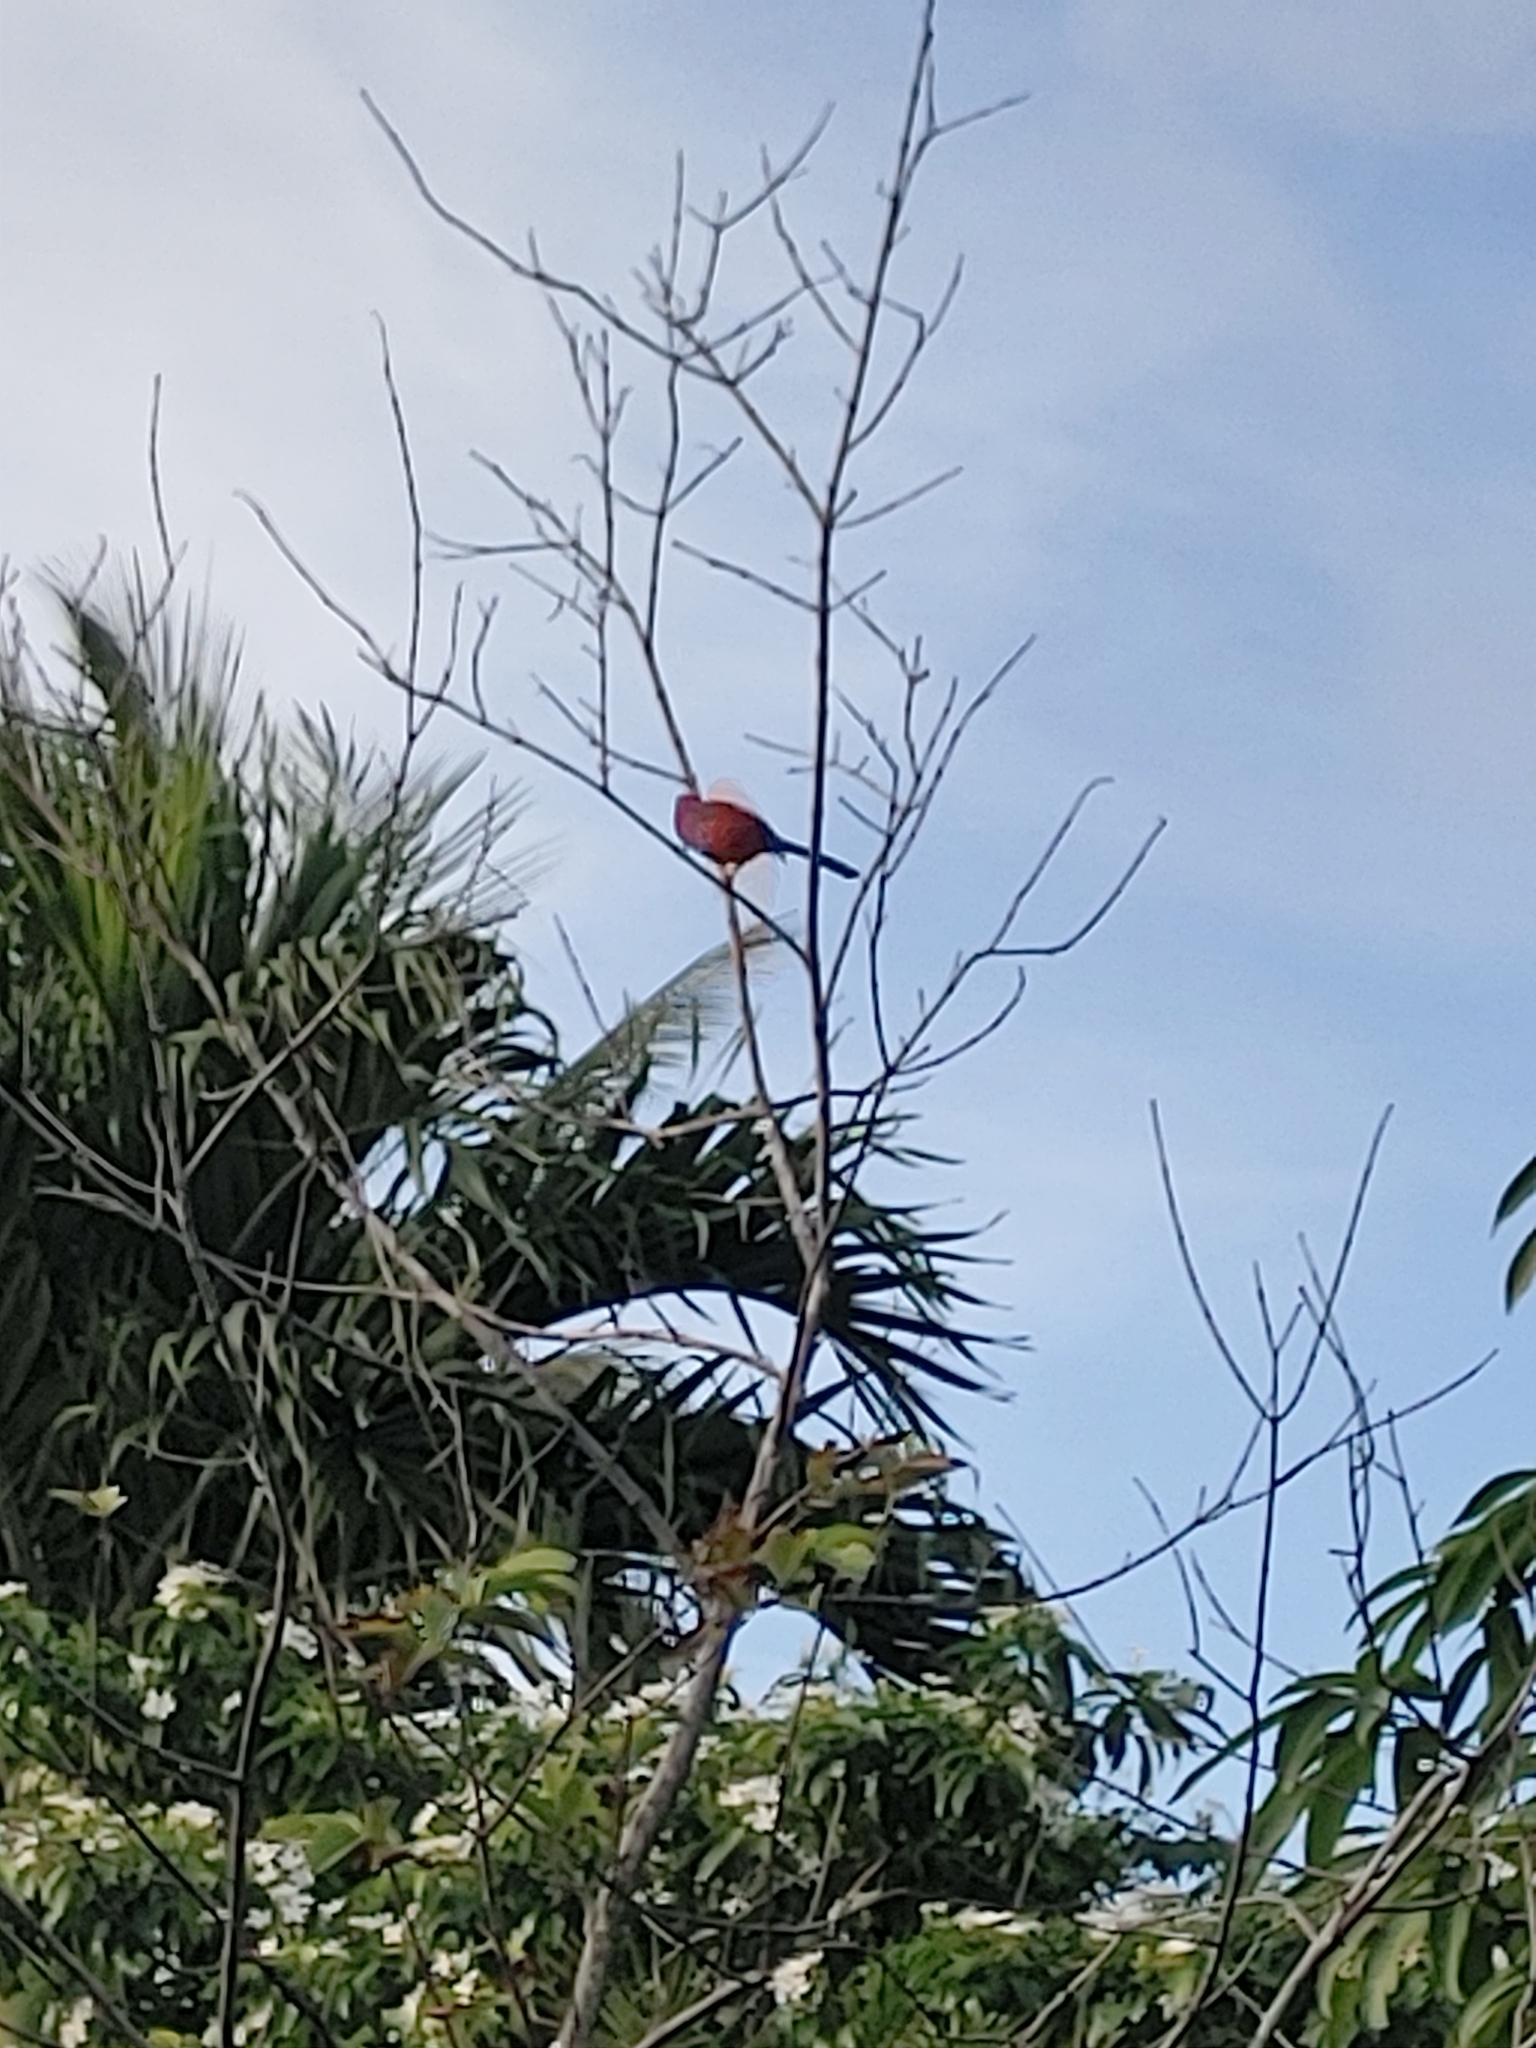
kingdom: Animalia
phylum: Chordata
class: Aves
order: Passeriformes
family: Cardinalidae
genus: Cardinalis
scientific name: Cardinalis cardinalis
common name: Northern cardinal
